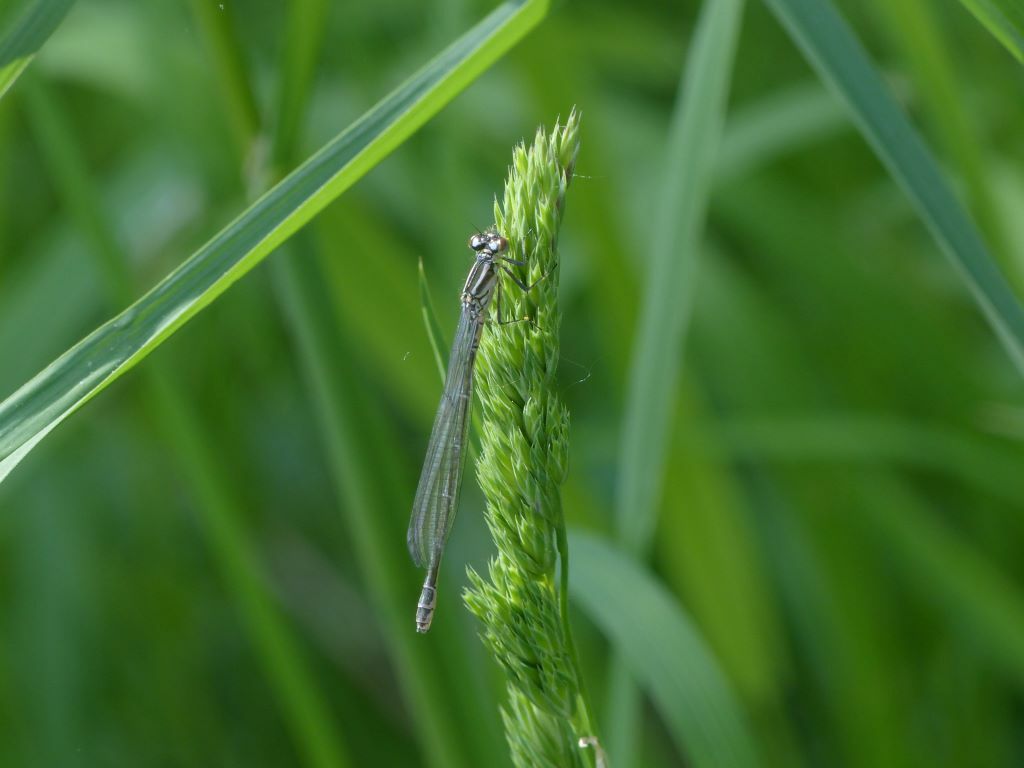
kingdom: Animalia
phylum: Arthropoda
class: Insecta
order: Odonata
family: Coenagrionidae
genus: Coenagrion
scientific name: Coenagrion puella
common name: Azure damselfly
